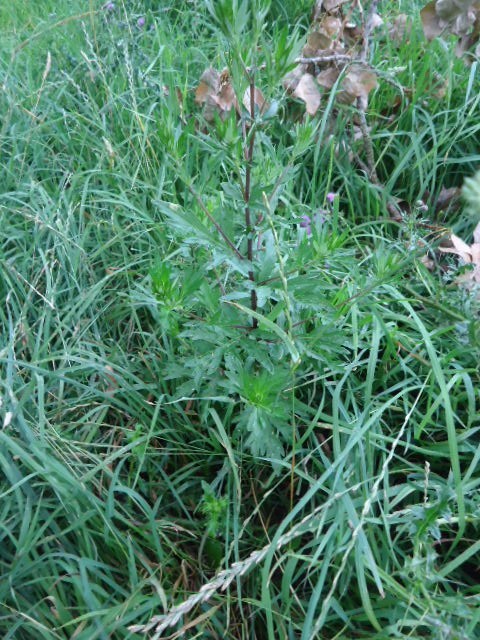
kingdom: Plantae
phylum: Tracheophyta
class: Magnoliopsida
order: Asterales
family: Asteraceae
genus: Artemisia
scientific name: Artemisia vulgaris
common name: Mugwort
